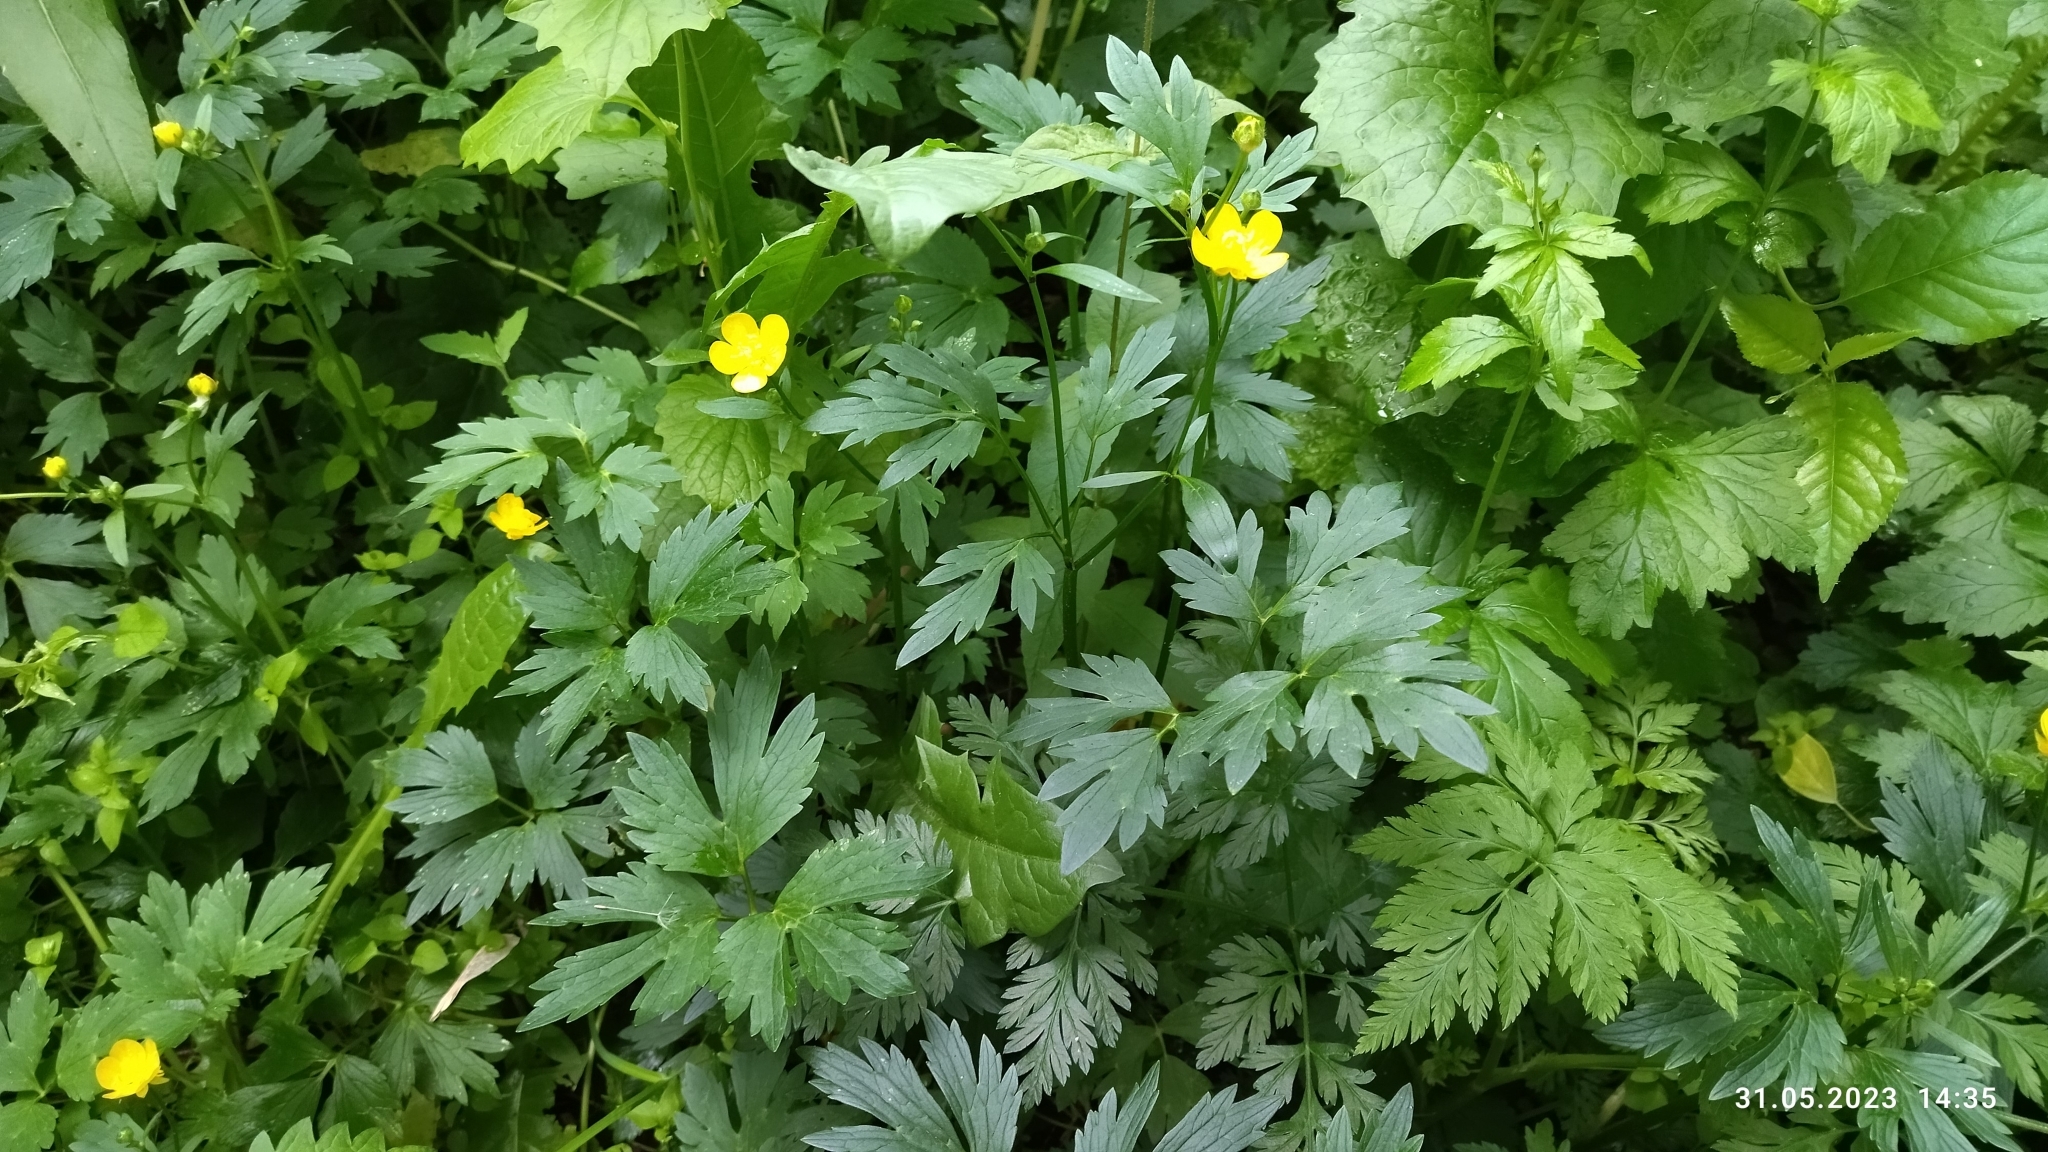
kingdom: Plantae
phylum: Tracheophyta
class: Magnoliopsida
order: Ranunculales
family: Ranunculaceae
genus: Ranunculus
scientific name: Ranunculus repens
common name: Creeping buttercup
